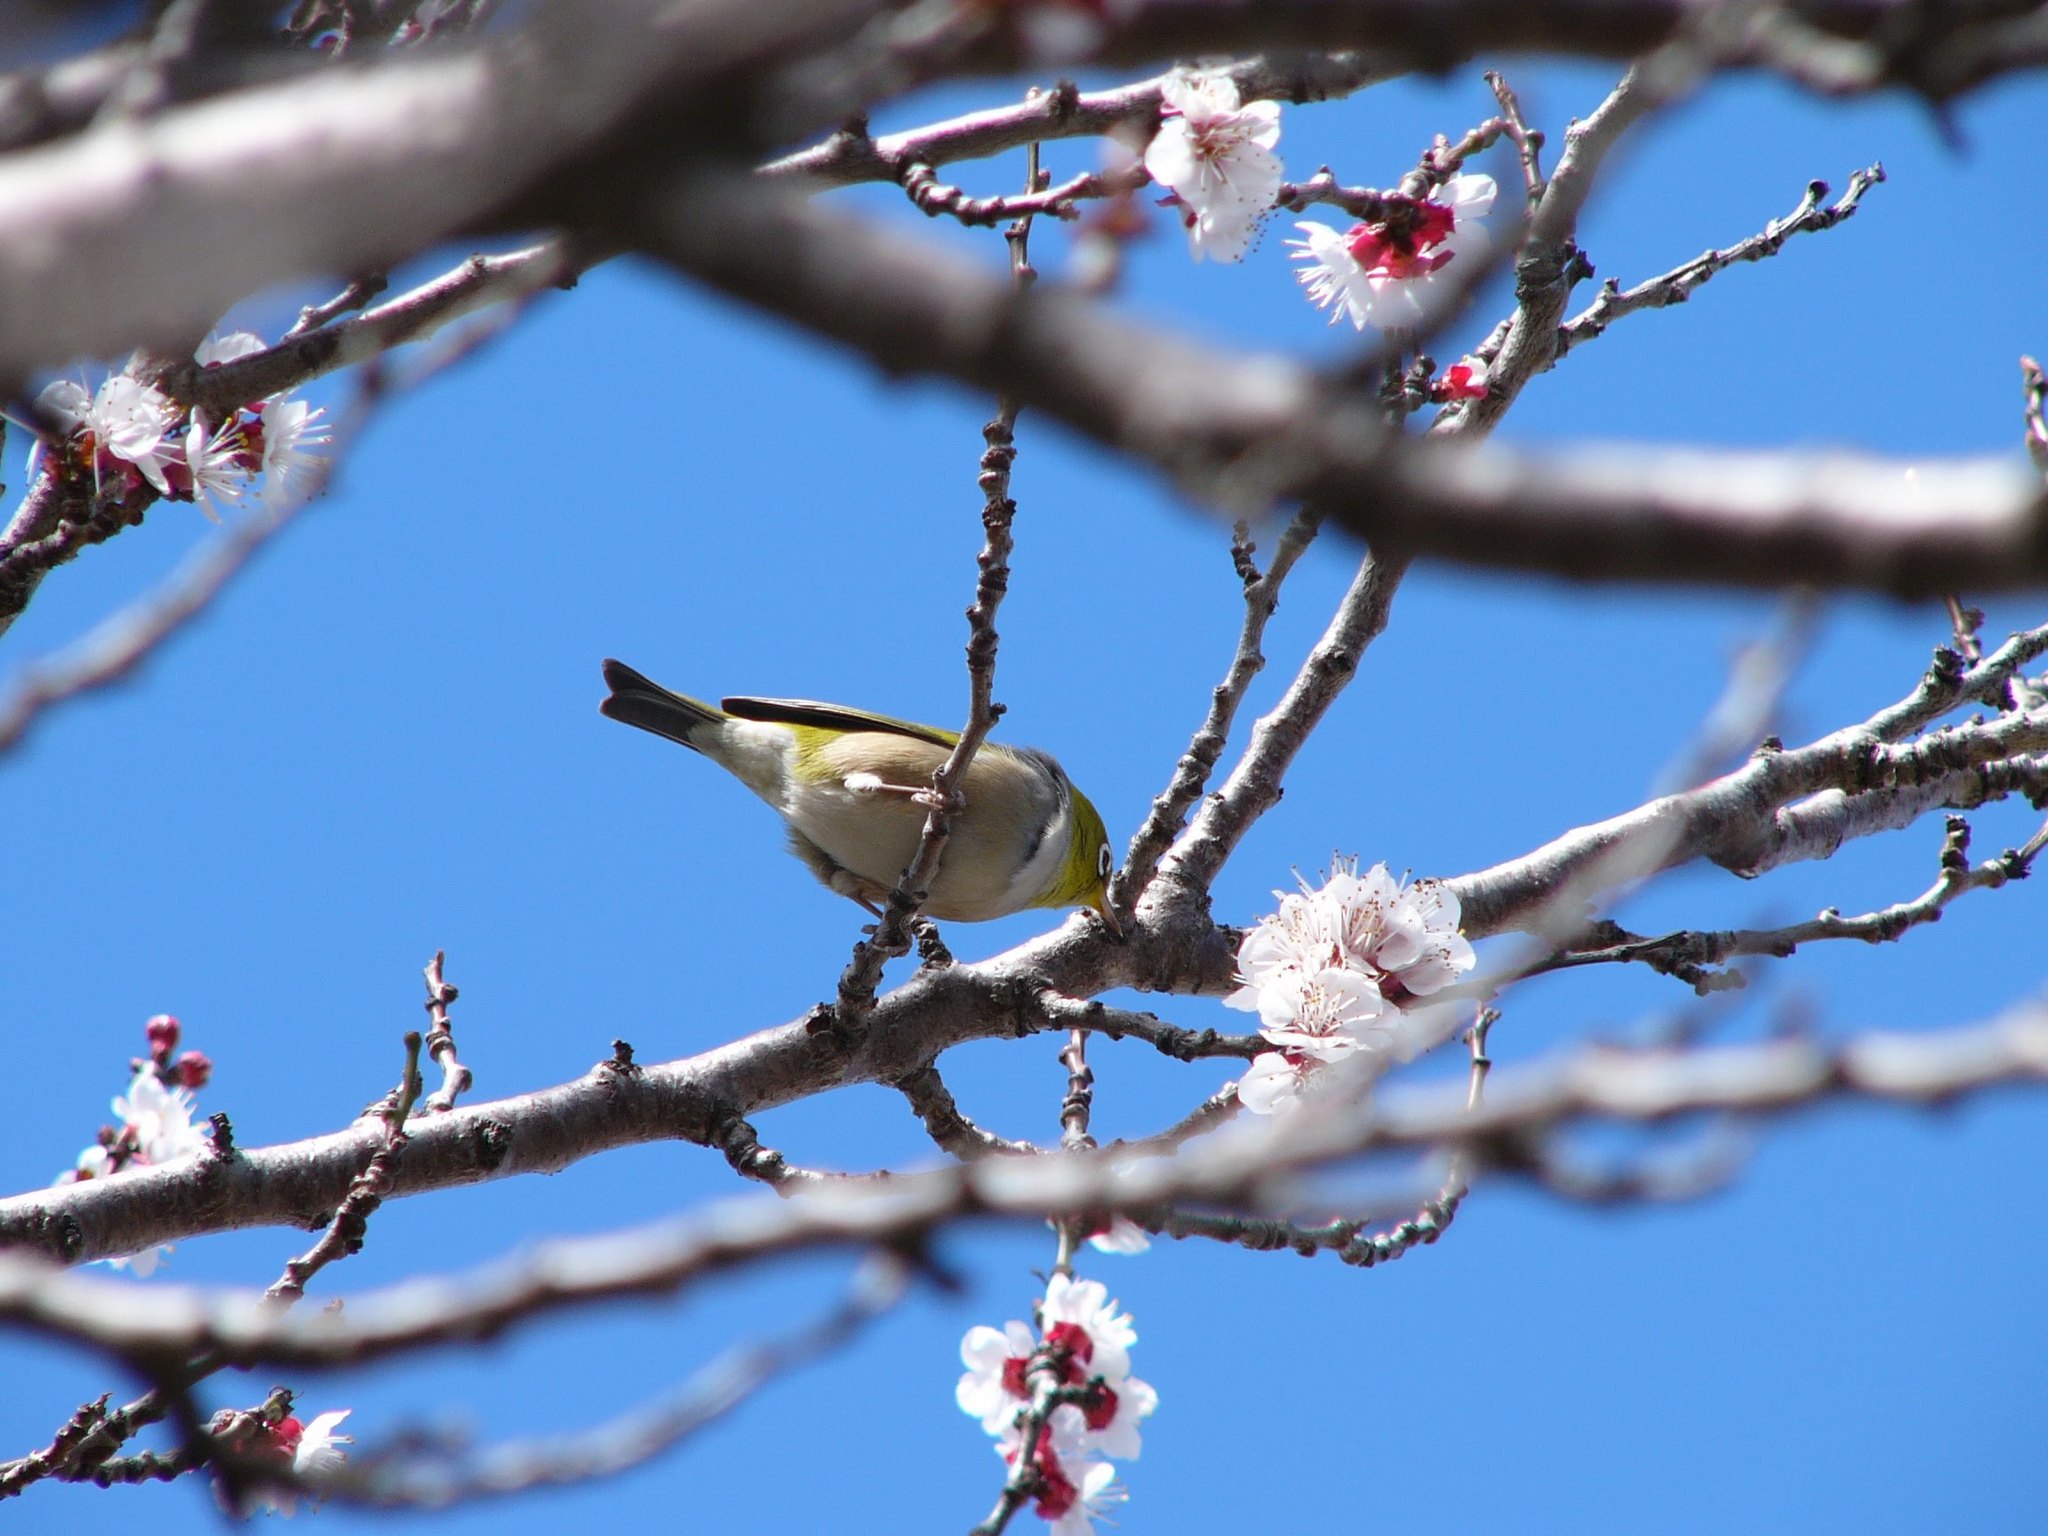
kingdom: Animalia
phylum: Chordata
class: Aves
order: Passeriformes
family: Zosteropidae
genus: Zosterops
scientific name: Zosterops lateralis
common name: Silvereye
